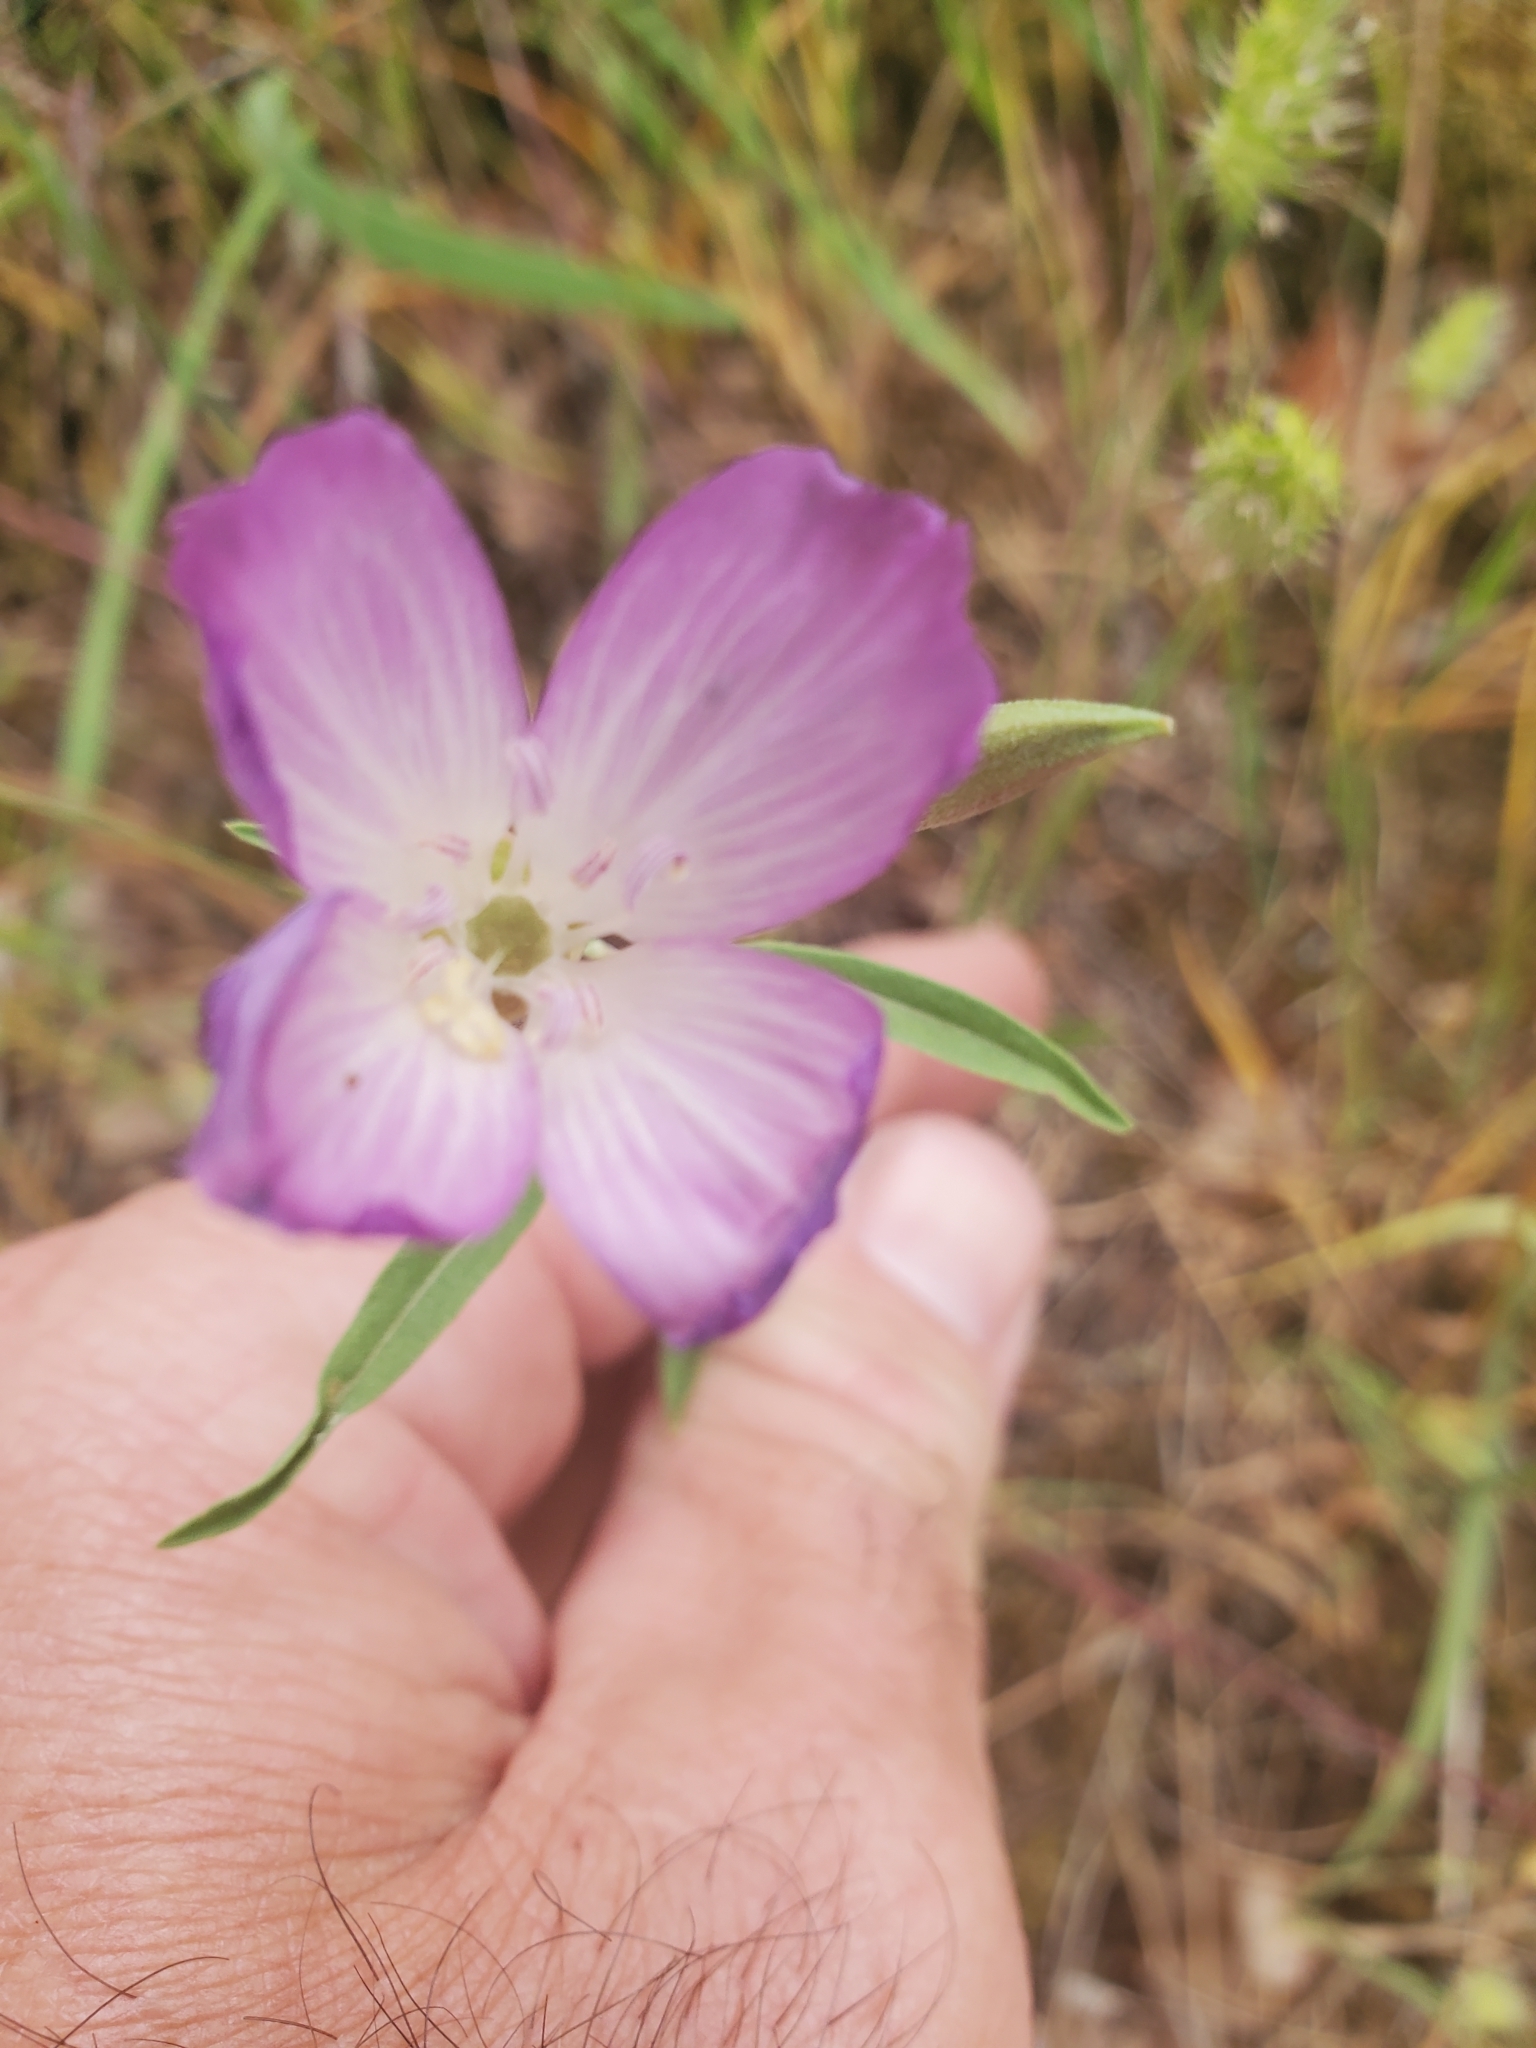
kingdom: Plantae
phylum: Tracheophyta
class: Magnoliopsida
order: Myrtales
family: Onagraceae
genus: Clarkia
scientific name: Clarkia amoena
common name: Godetia
